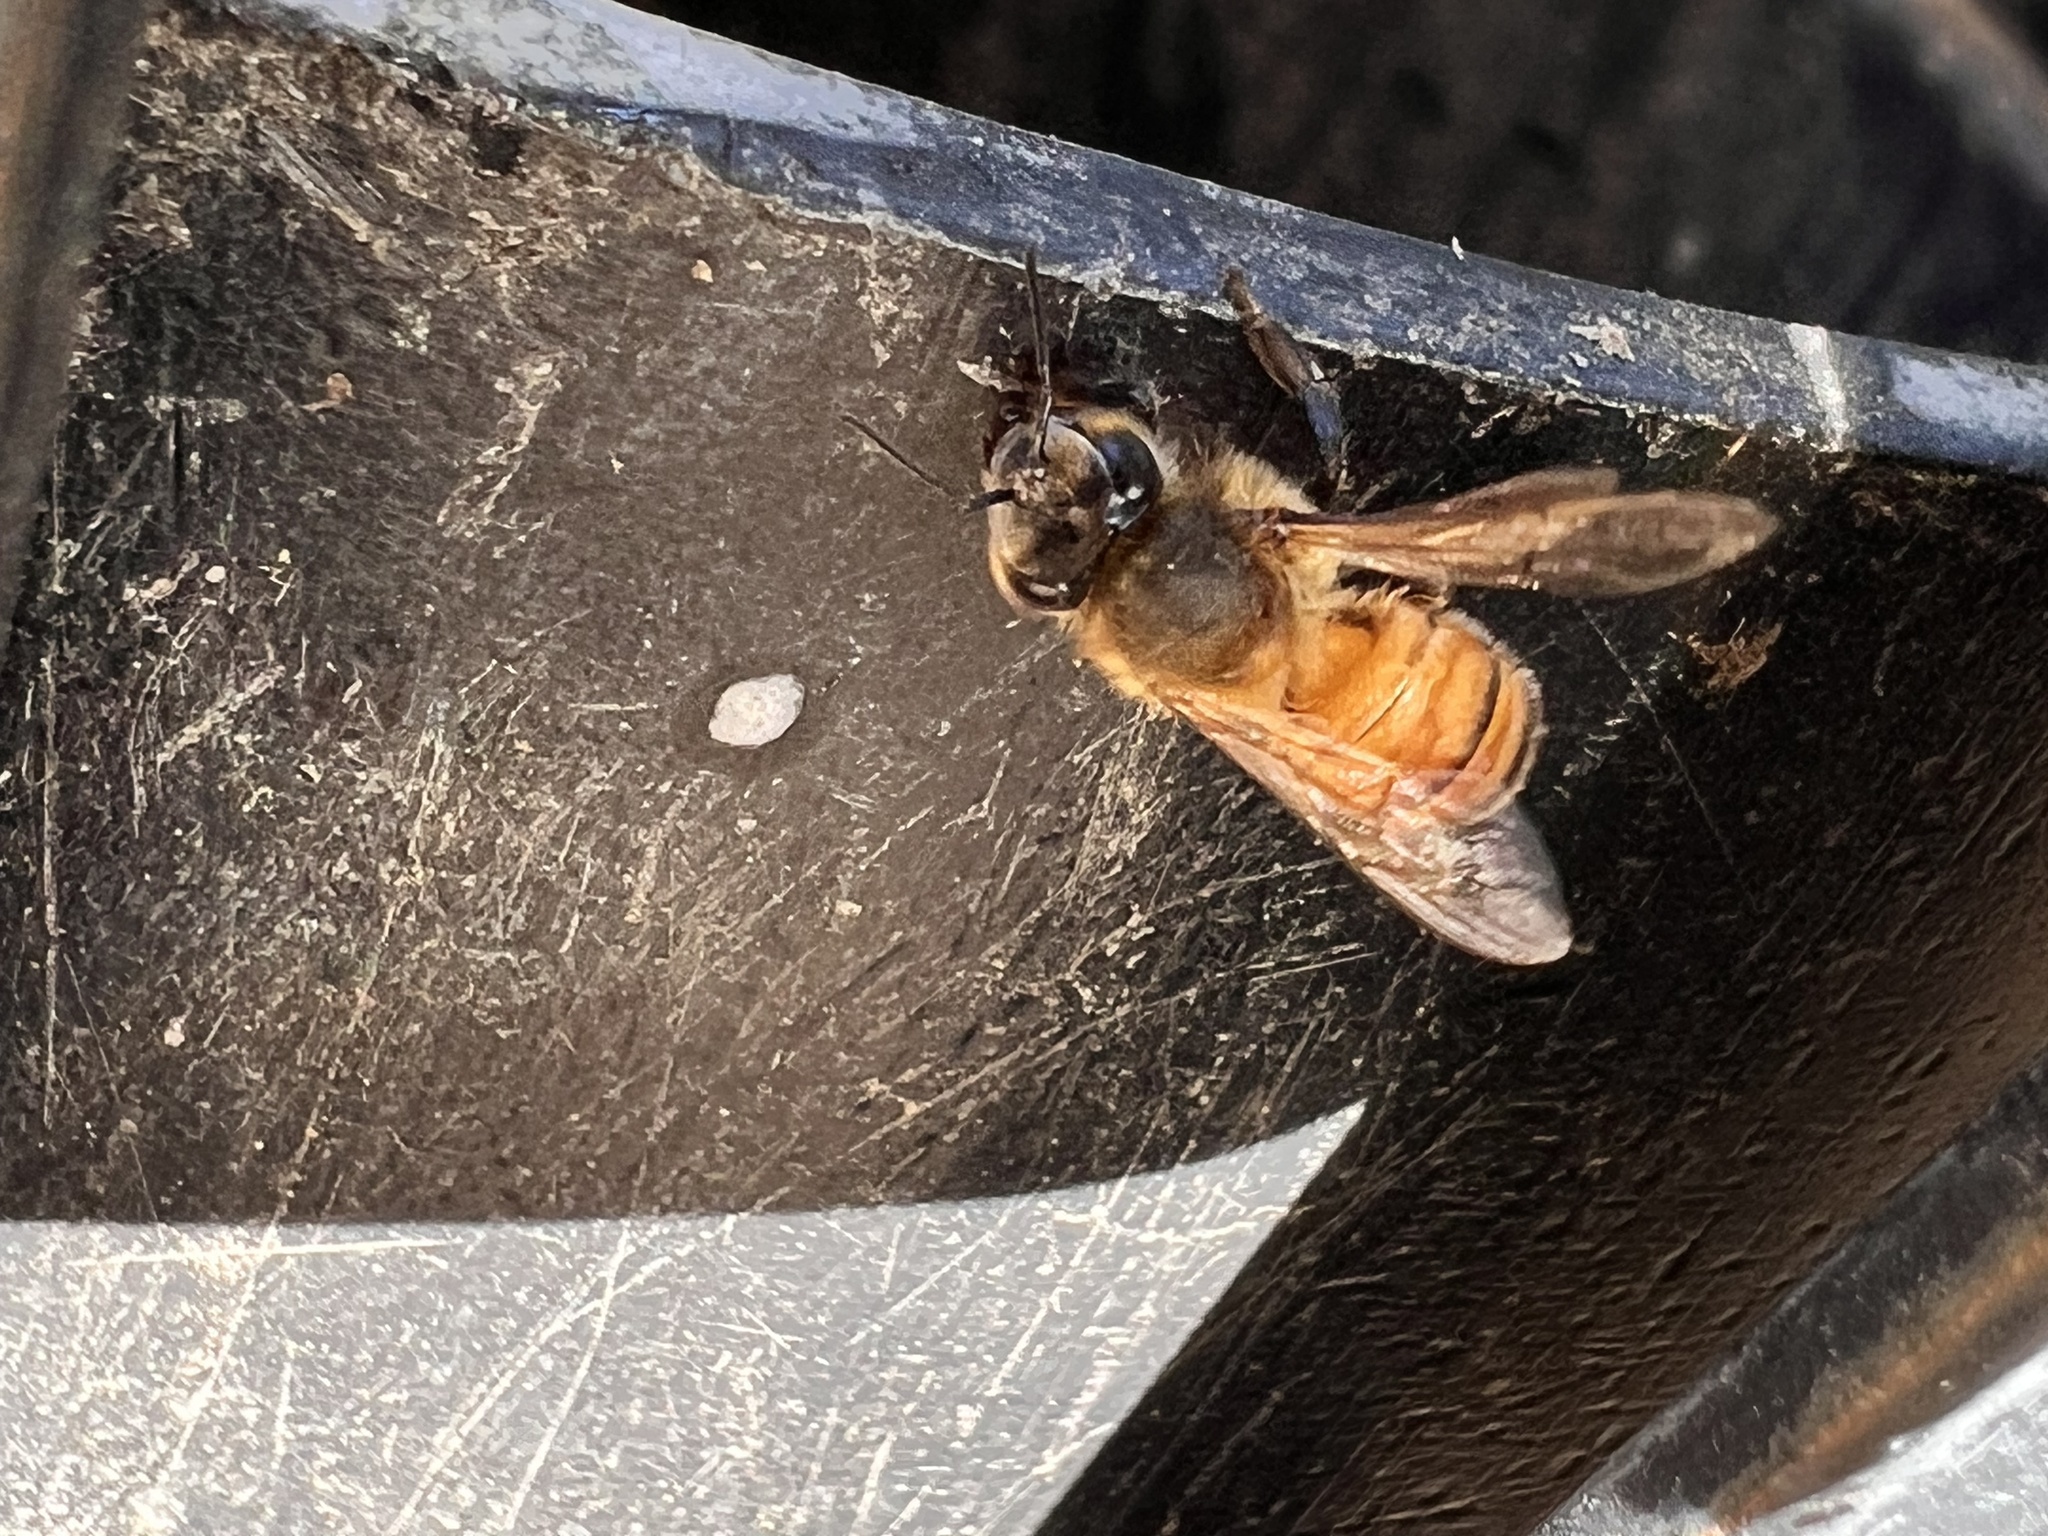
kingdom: Animalia
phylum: Arthropoda
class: Insecta
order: Hymenoptera
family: Apidae
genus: Apis
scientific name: Apis mellifera
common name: Honey bee
